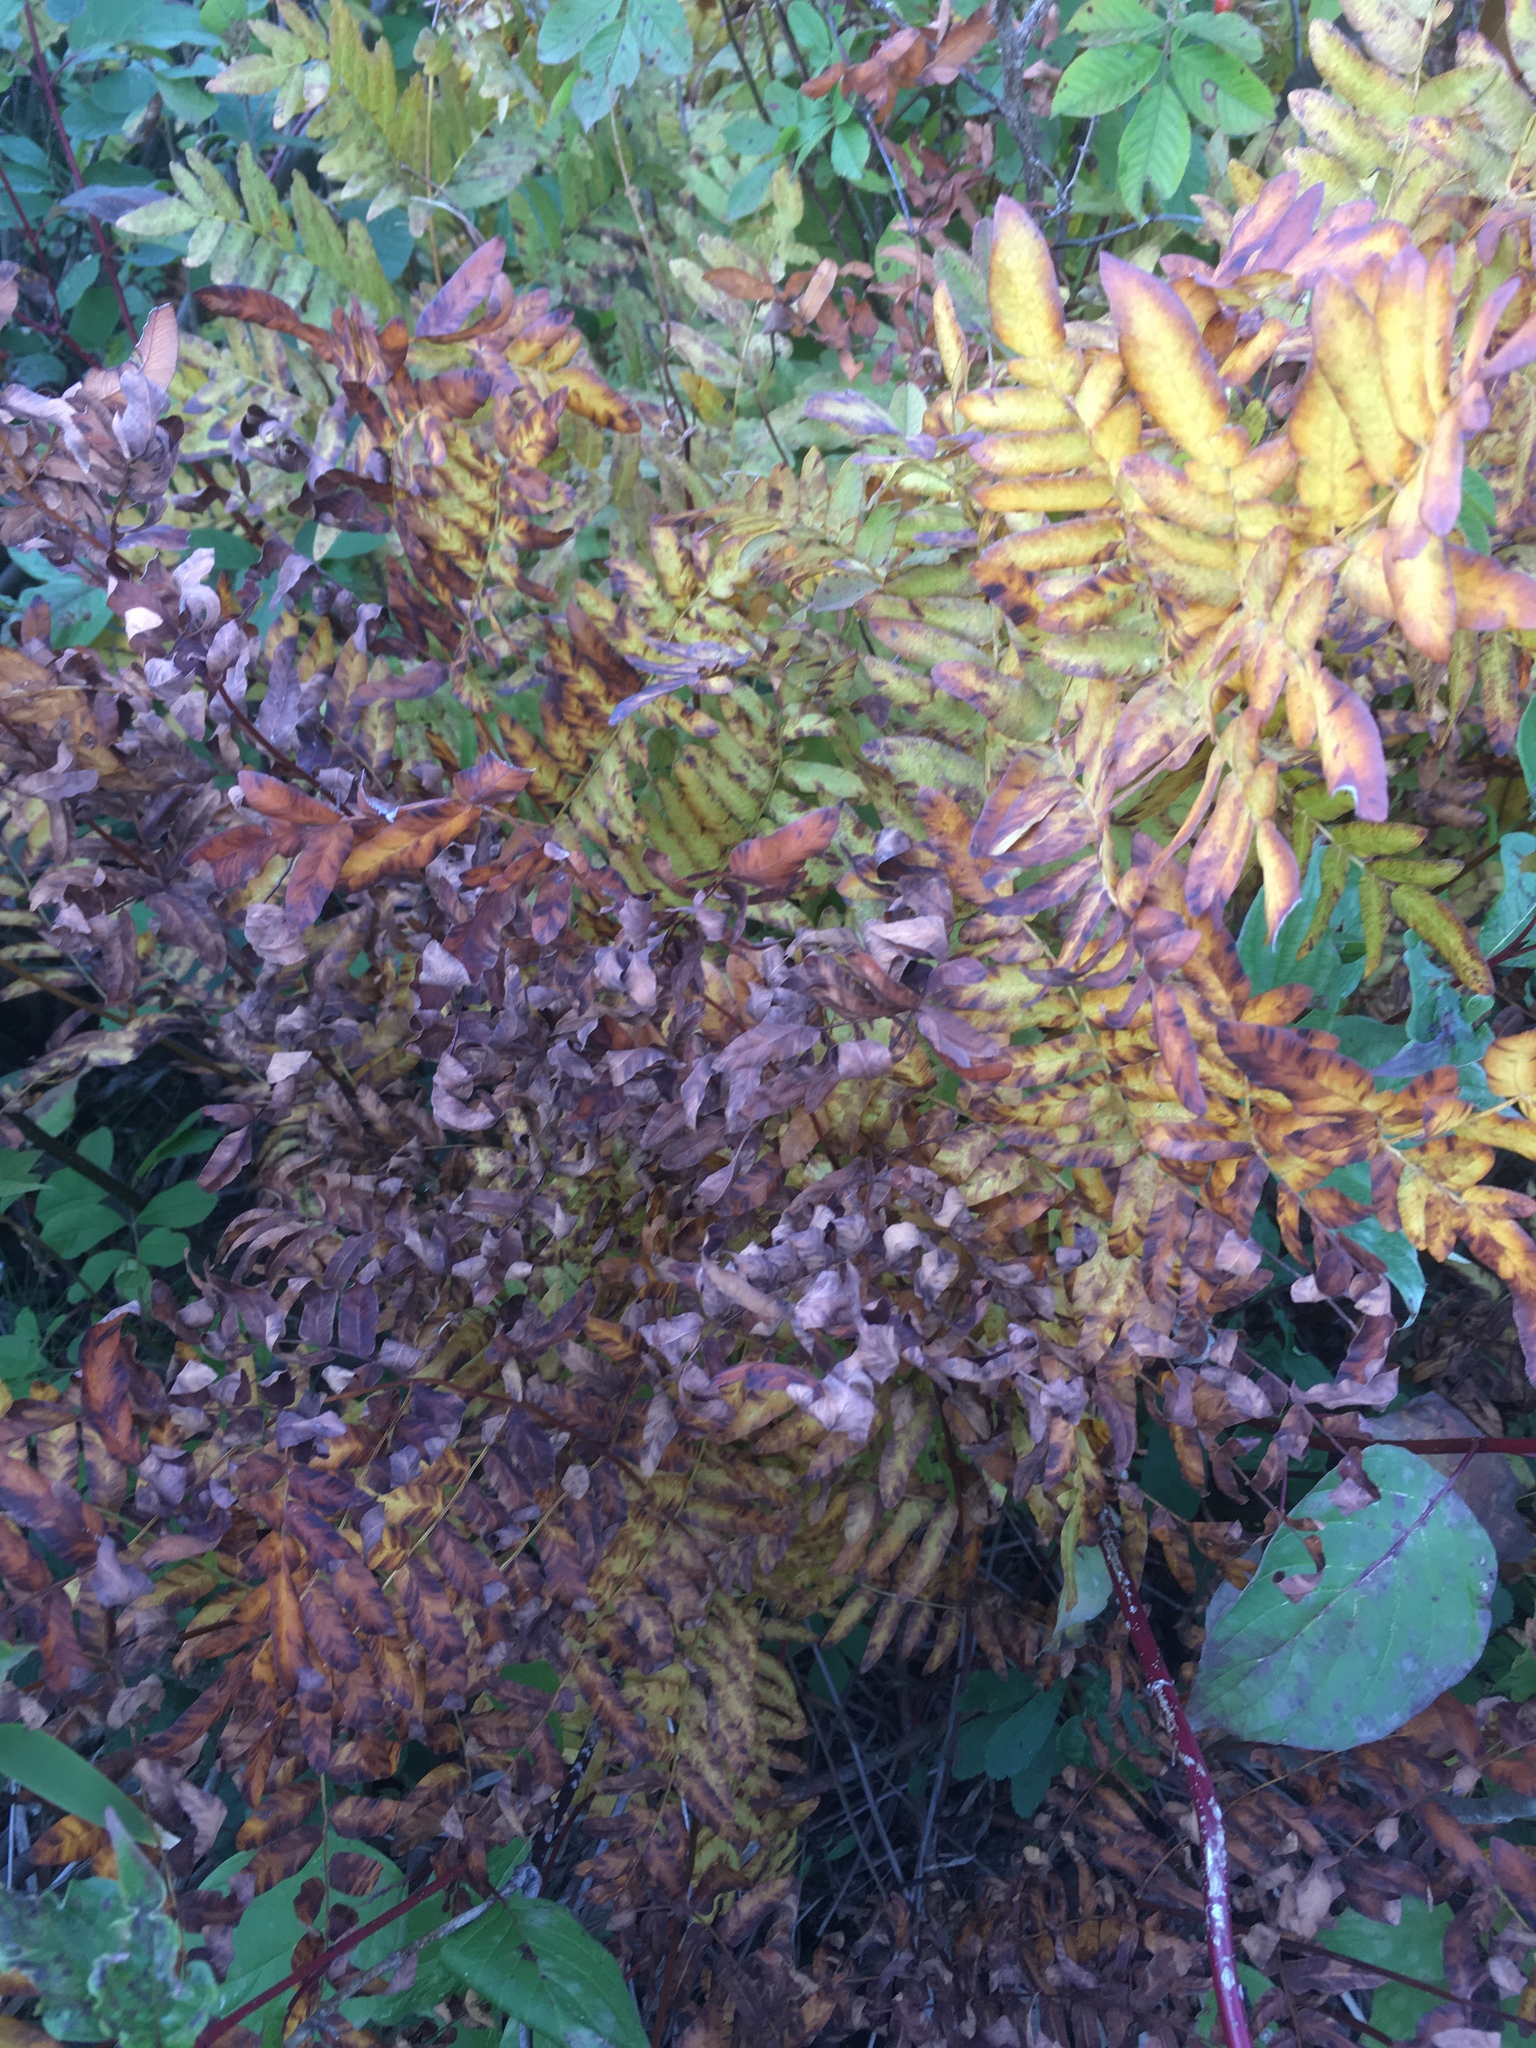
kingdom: Plantae
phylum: Tracheophyta
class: Polypodiopsida
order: Osmundales
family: Osmundaceae
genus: Osmunda
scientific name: Osmunda spectabilis
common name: American royal fern
